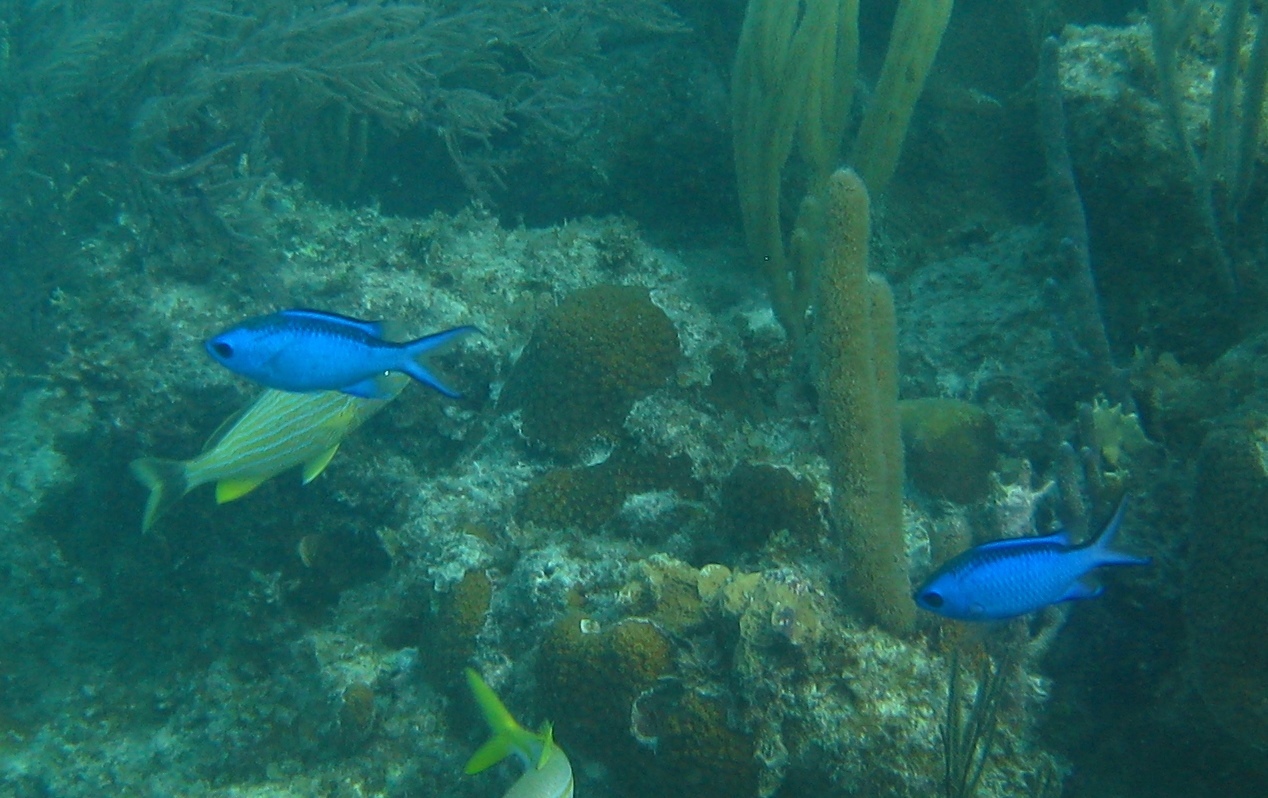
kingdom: Animalia
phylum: Chordata
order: Perciformes
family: Pomacentridae
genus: Chromis
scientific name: Chromis cyanea
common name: Blue chromis
